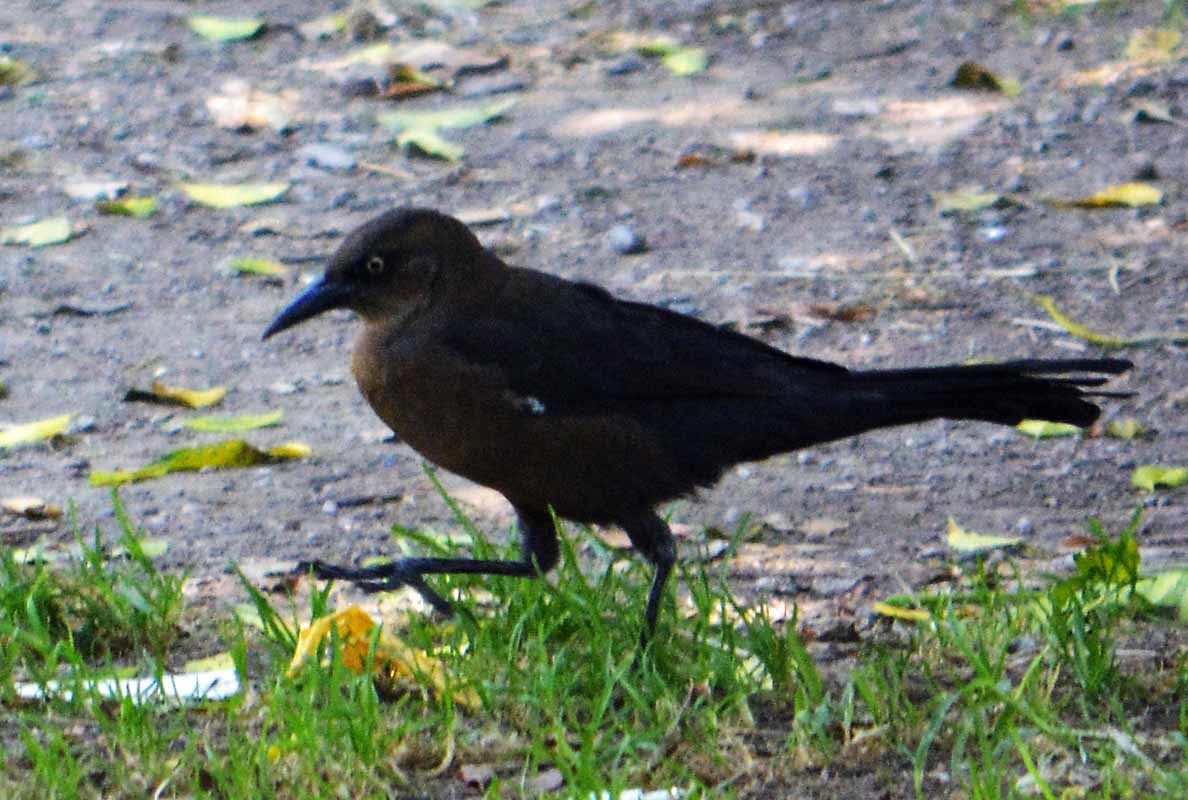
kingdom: Animalia
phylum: Chordata
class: Aves
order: Passeriformes
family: Icteridae
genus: Quiscalus
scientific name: Quiscalus mexicanus
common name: Great-tailed grackle
